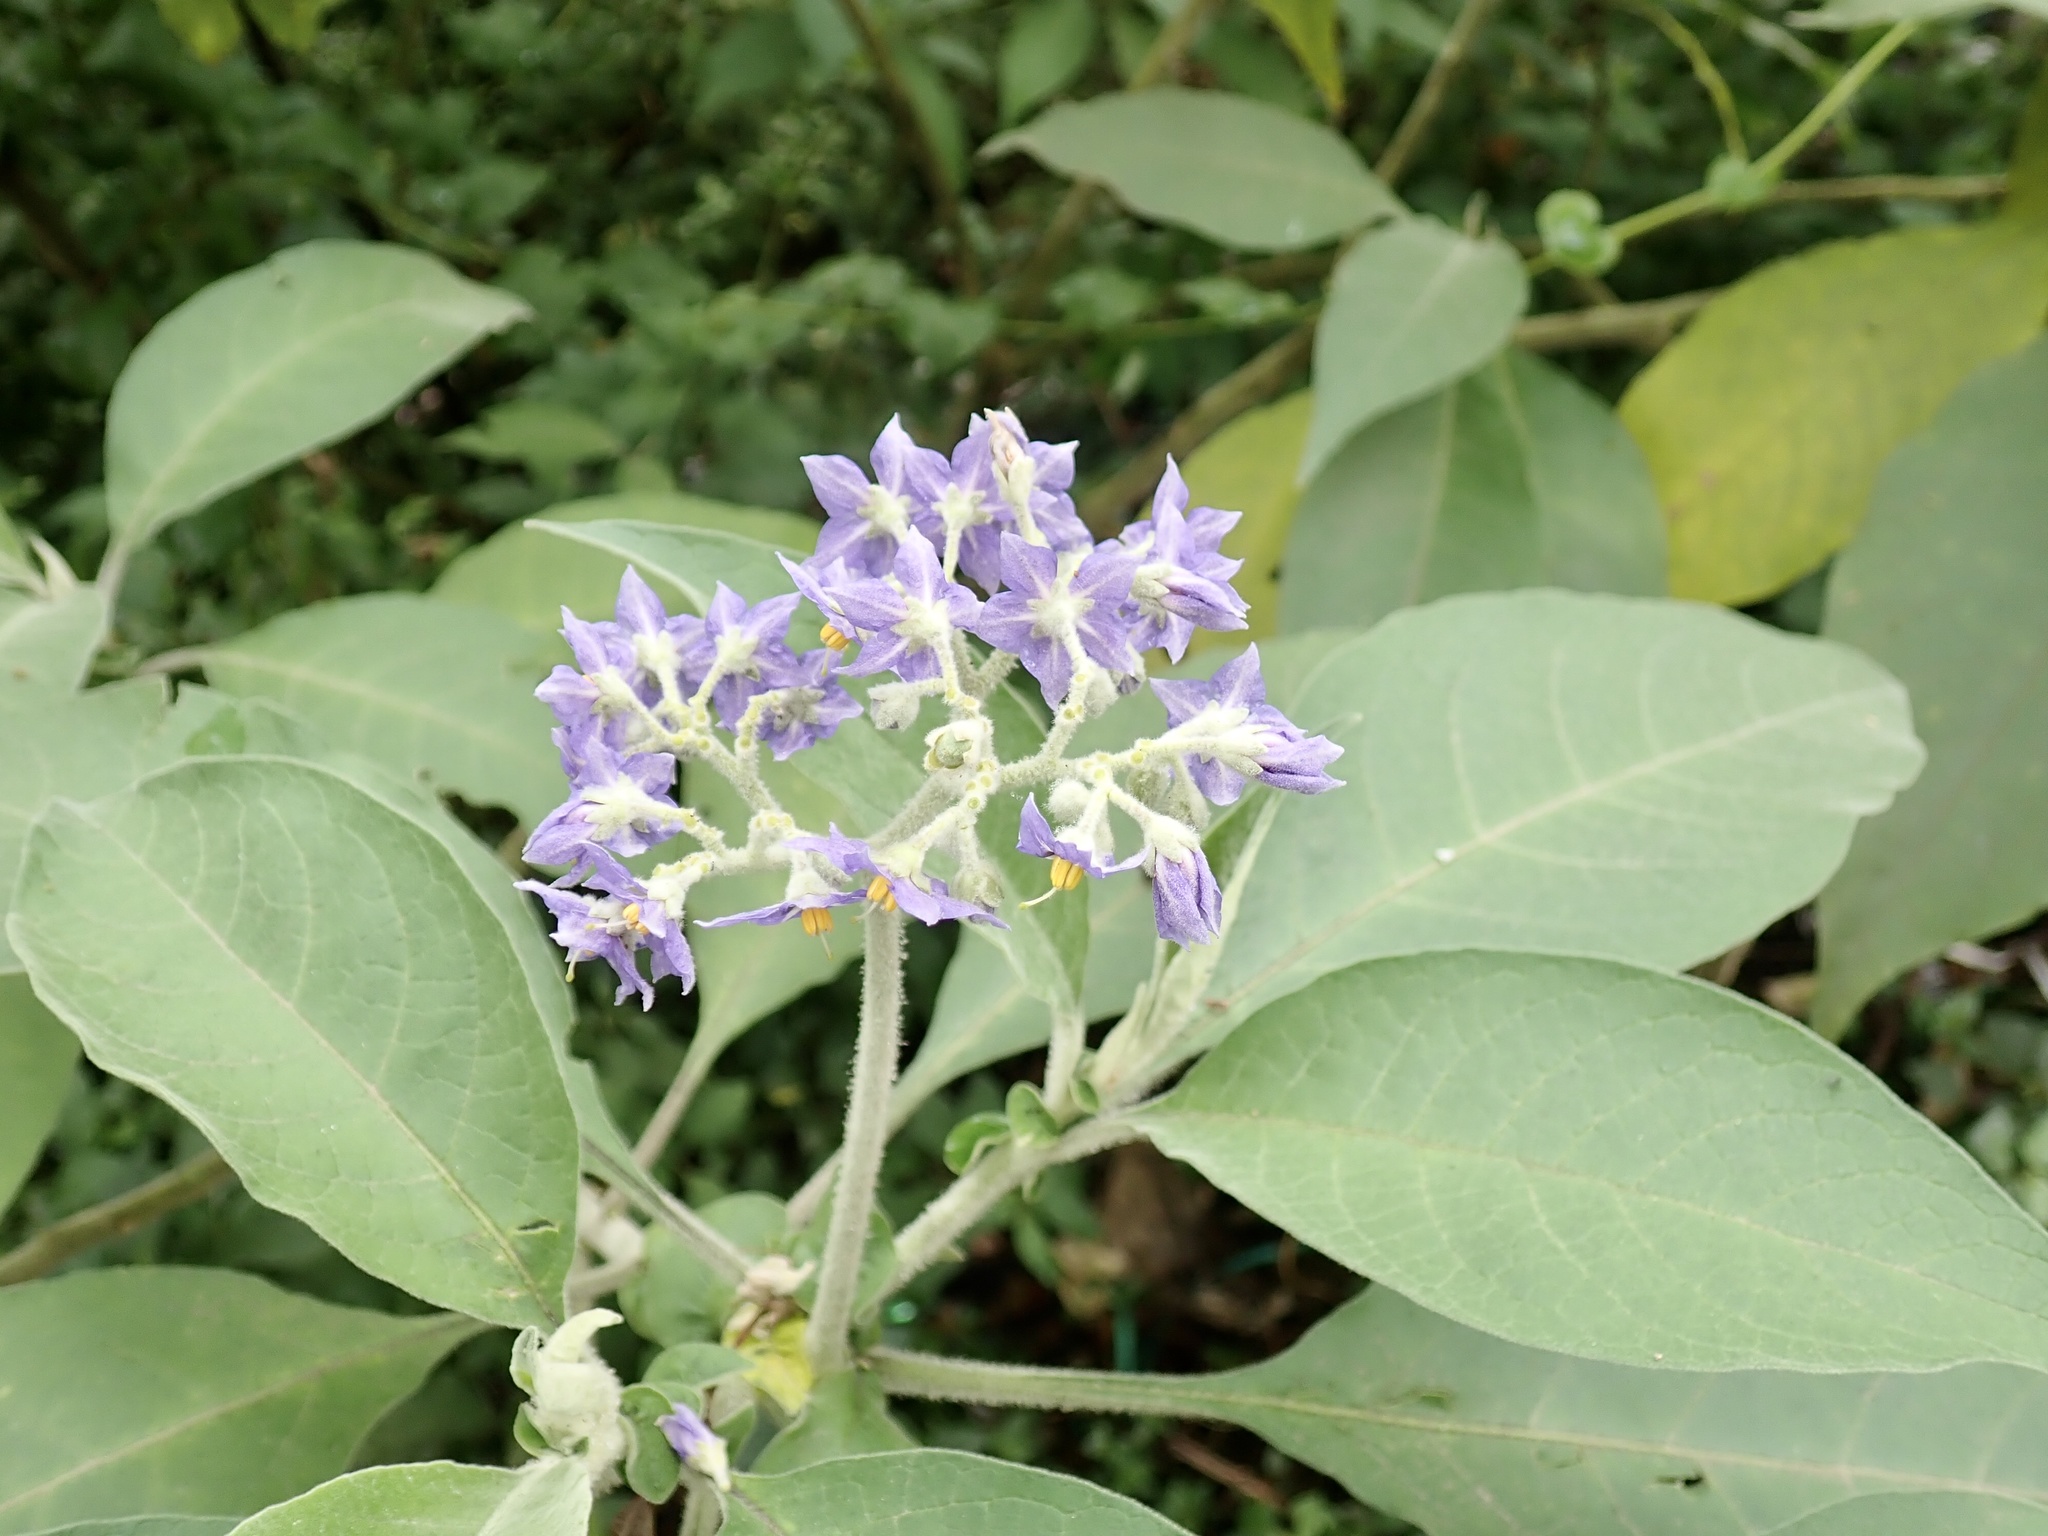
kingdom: Plantae
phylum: Tracheophyta
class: Magnoliopsida
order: Solanales
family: Solanaceae
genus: Solanum
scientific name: Solanum mauritianum
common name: Earleaf nightshade
